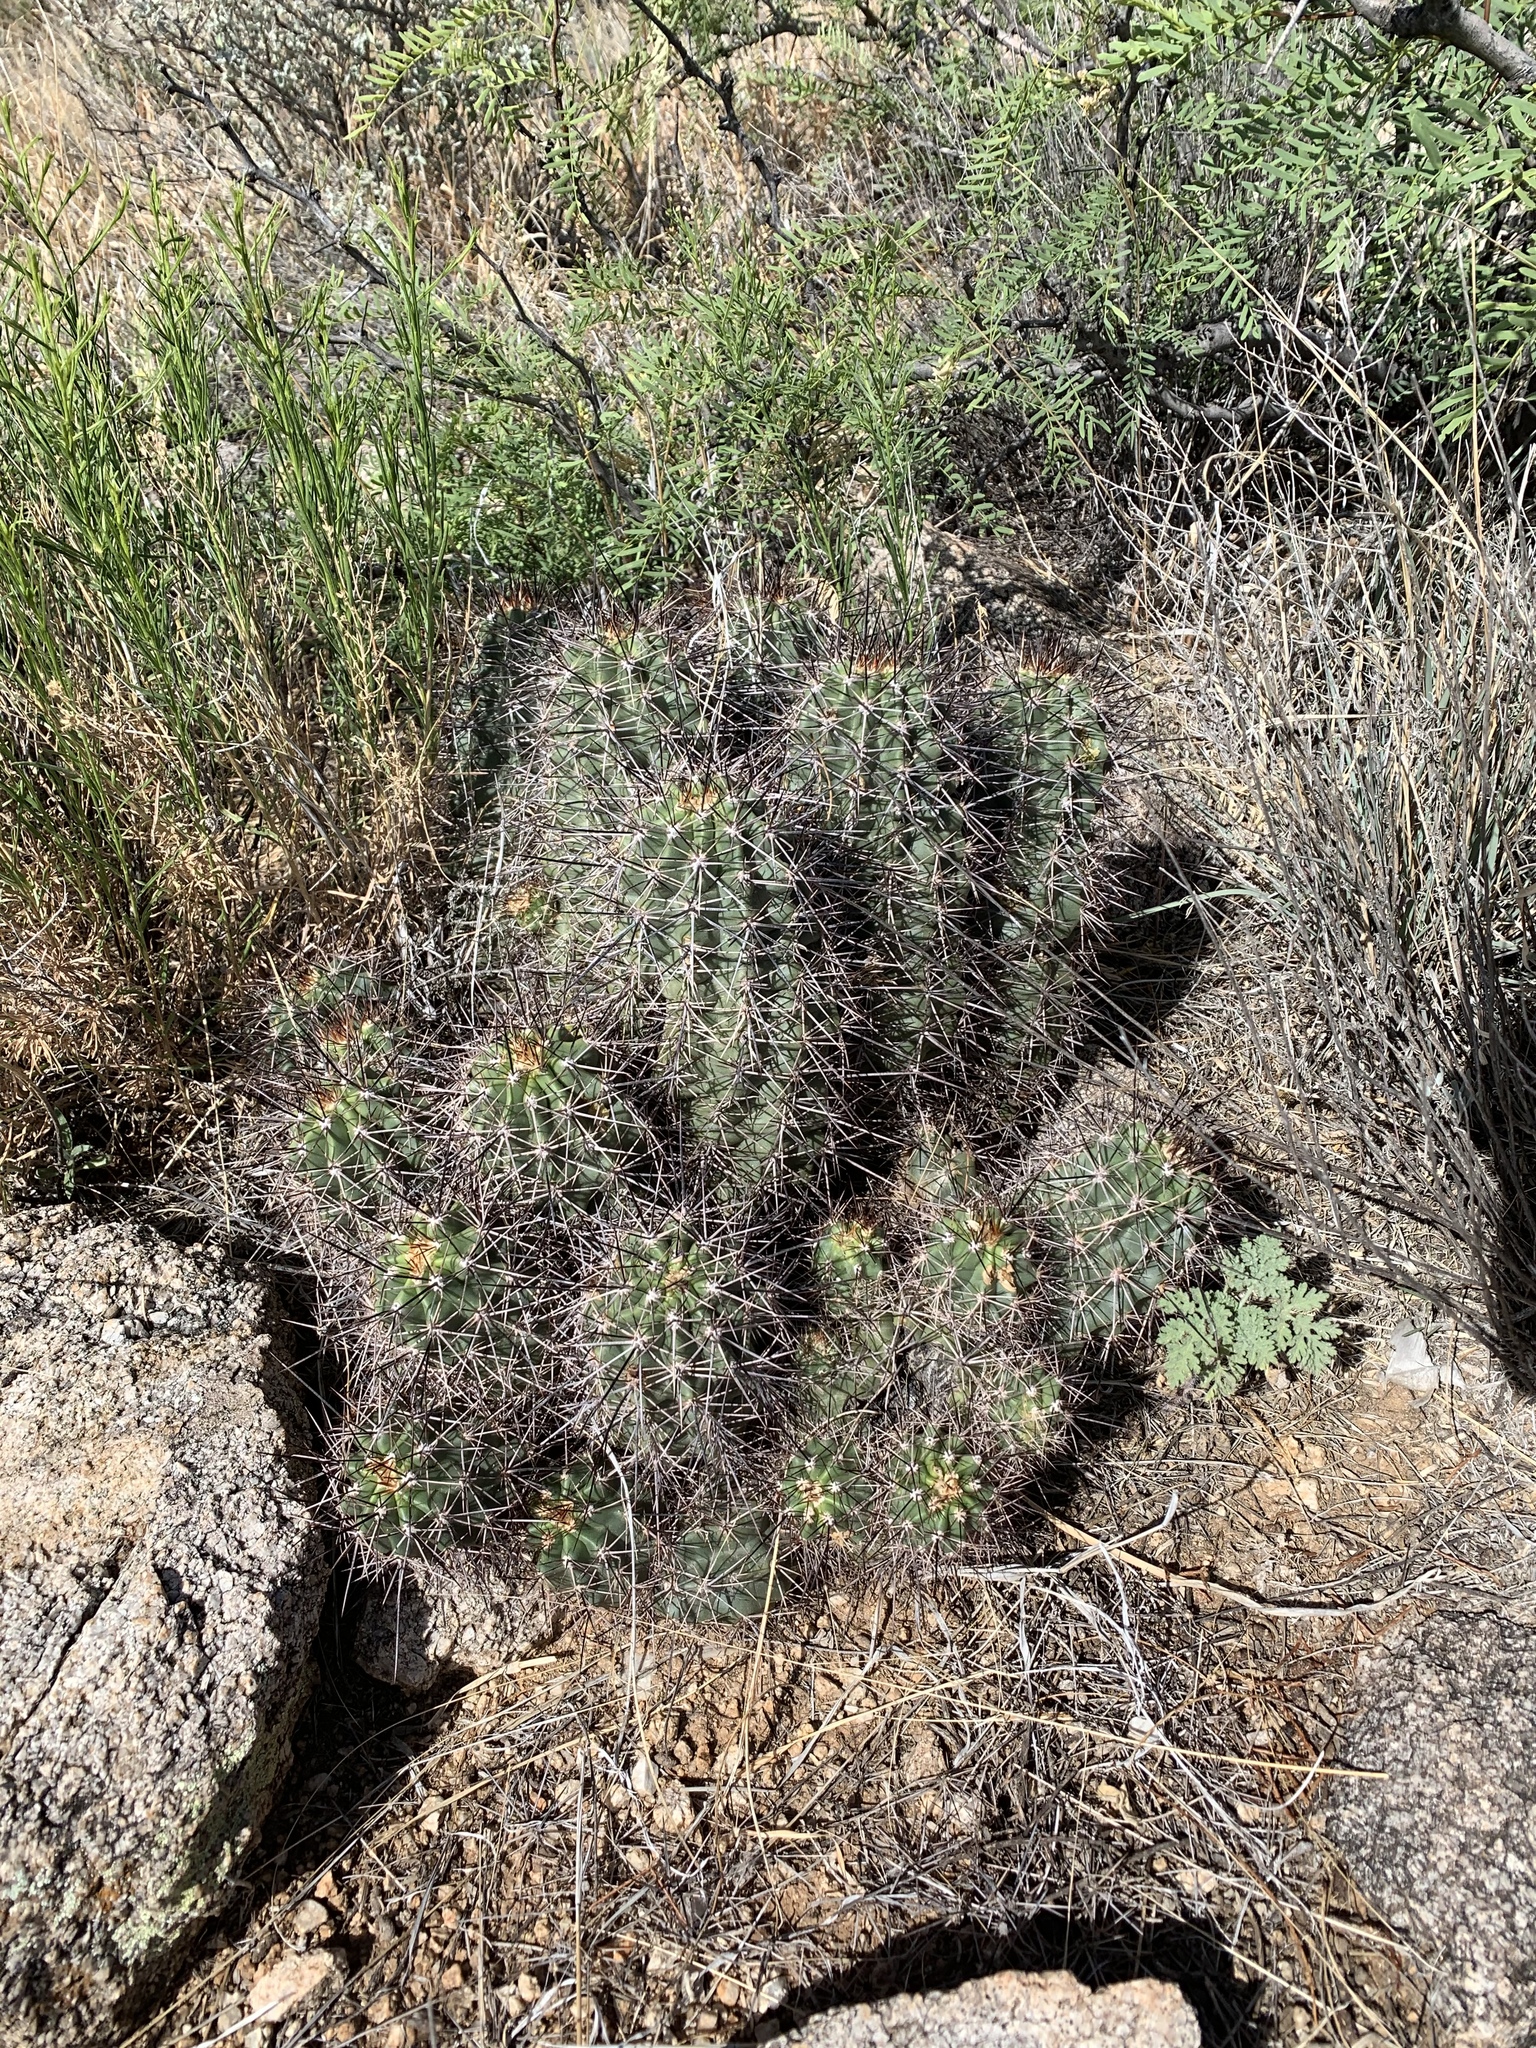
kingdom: Plantae
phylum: Tracheophyta
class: Magnoliopsida
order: Caryophyllales
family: Cactaceae
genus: Echinocereus
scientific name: Echinocereus coccineus
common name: Scarlet hedgehog cactus
